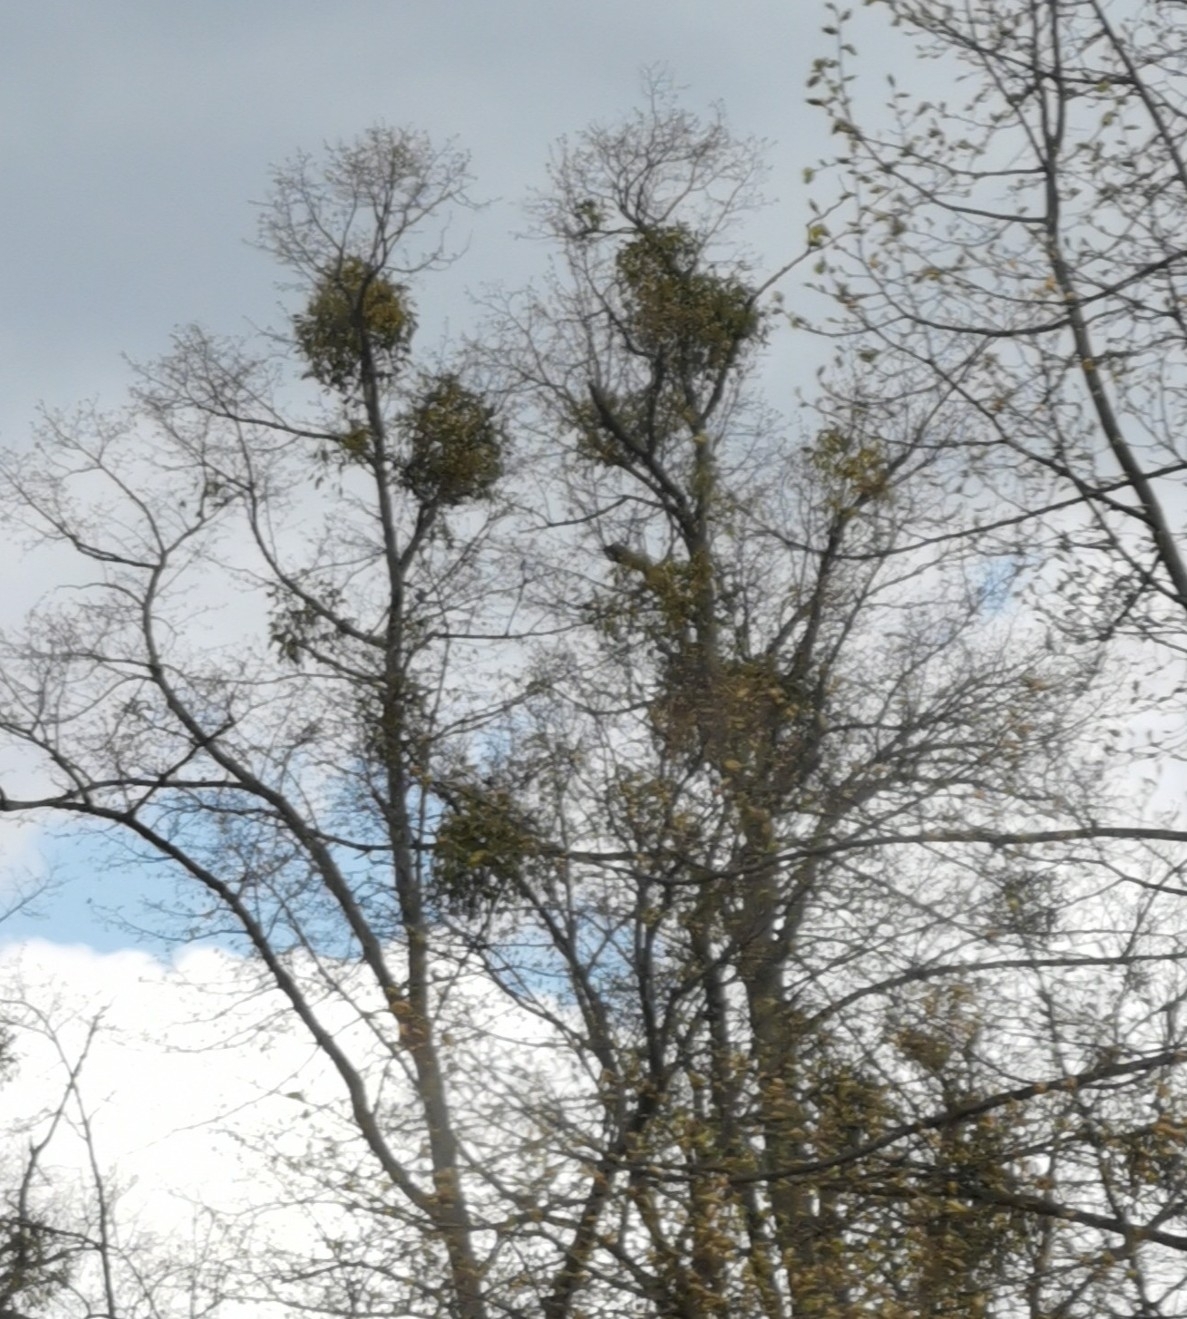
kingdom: Plantae
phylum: Tracheophyta
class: Magnoliopsida
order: Santalales
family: Viscaceae
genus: Viscum
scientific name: Viscum album
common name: Mistletoe
